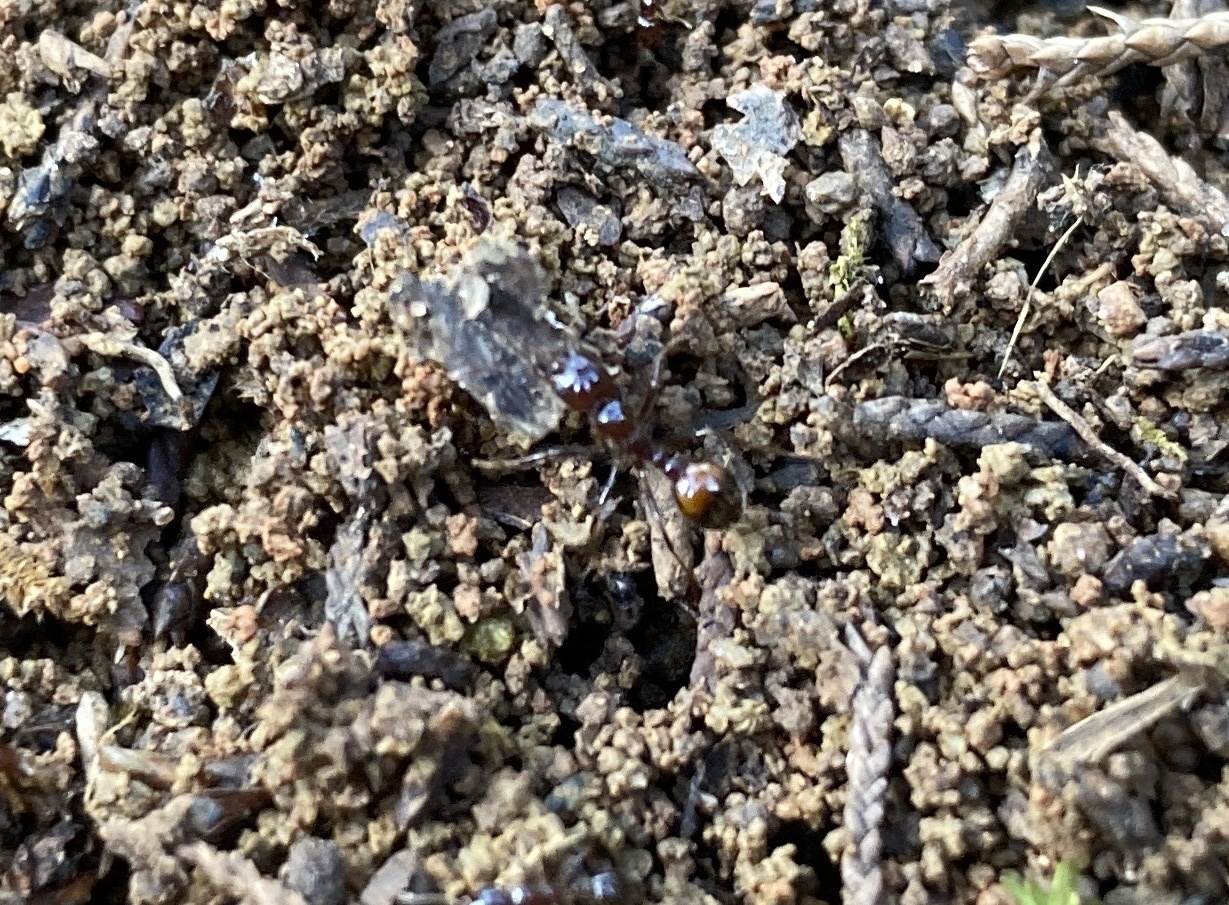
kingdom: Animalia
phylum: Arthropoda
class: Insecta
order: Hymenoptera
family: Formicidae
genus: Solenopsis
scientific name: Solenopsis
